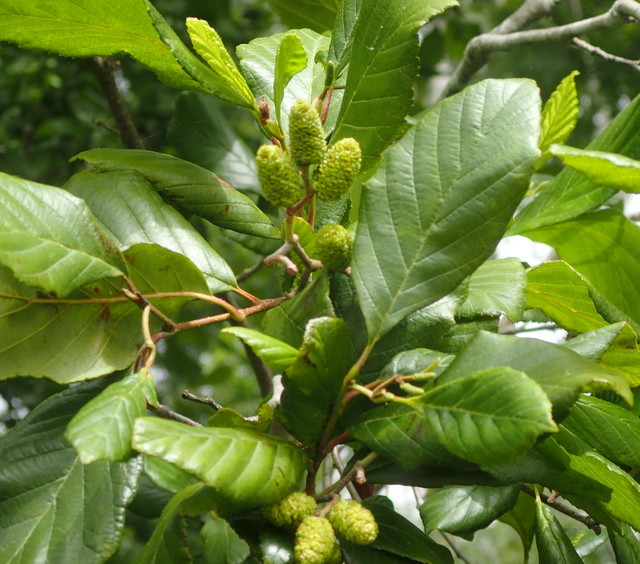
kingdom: Plantae
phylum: Tracheophyta
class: Magnoliopsida
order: Fagales
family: Betulaceae
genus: Alnus
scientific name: Alnus serrulata
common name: Hazel alder
